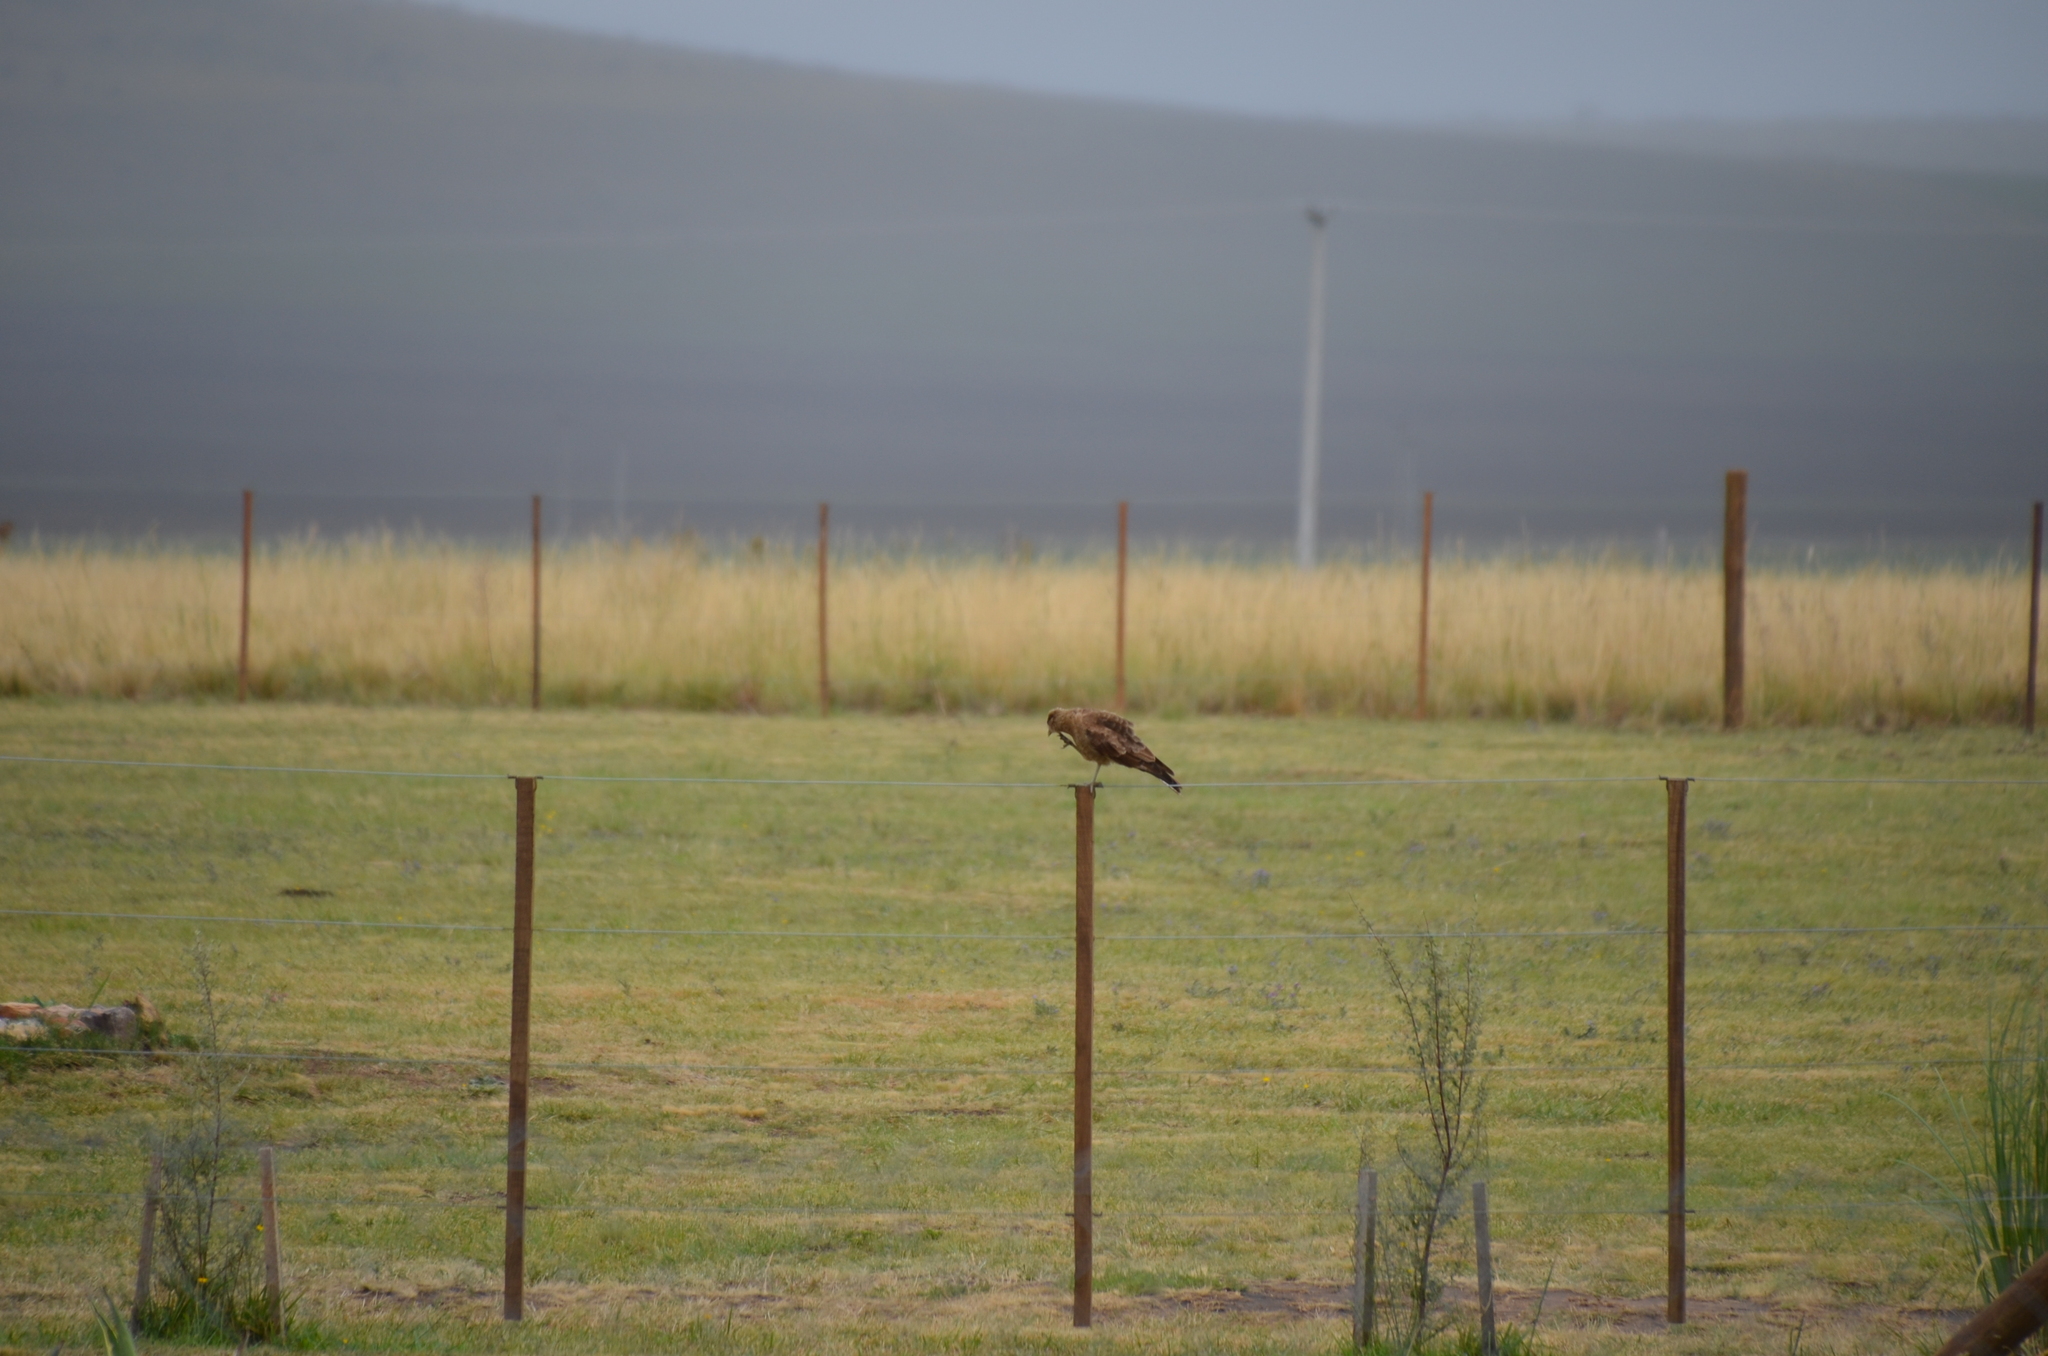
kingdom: Animalia
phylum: Chordata
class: Aves
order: Falconiformes
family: Falconidae
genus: Daptrius
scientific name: Daptrius
